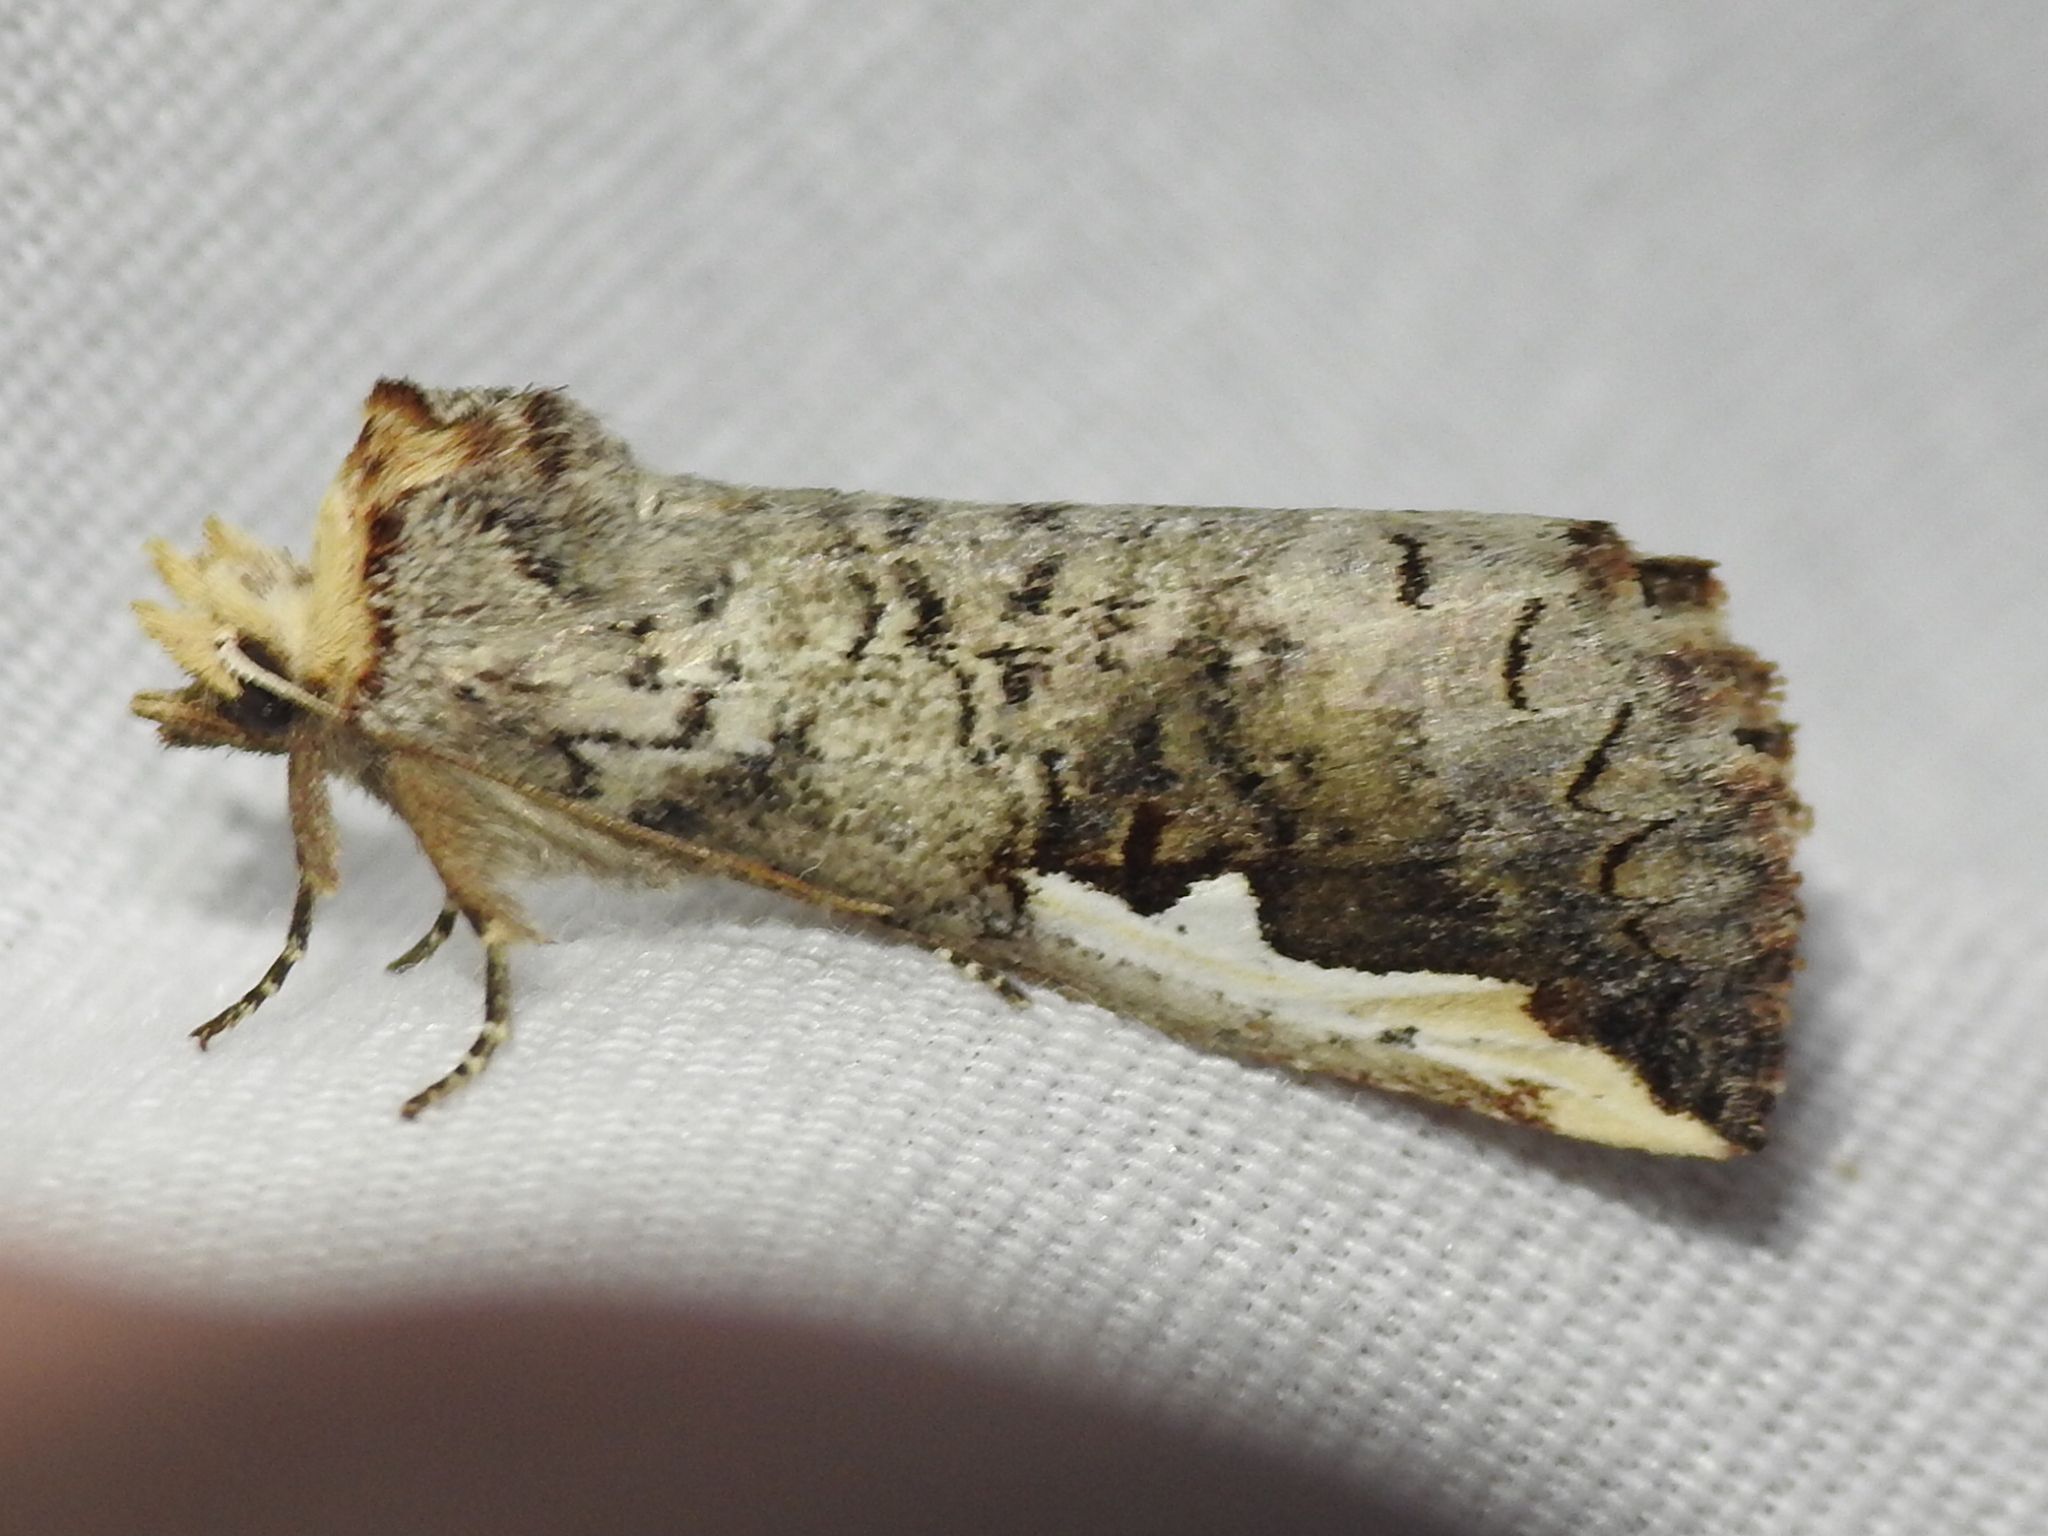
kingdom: Animalia
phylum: Arthropoda
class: Insecta
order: Lepidoptera
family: Notodontidae
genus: Symmerista
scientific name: Symmerista albifrons
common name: White-headed prominent
